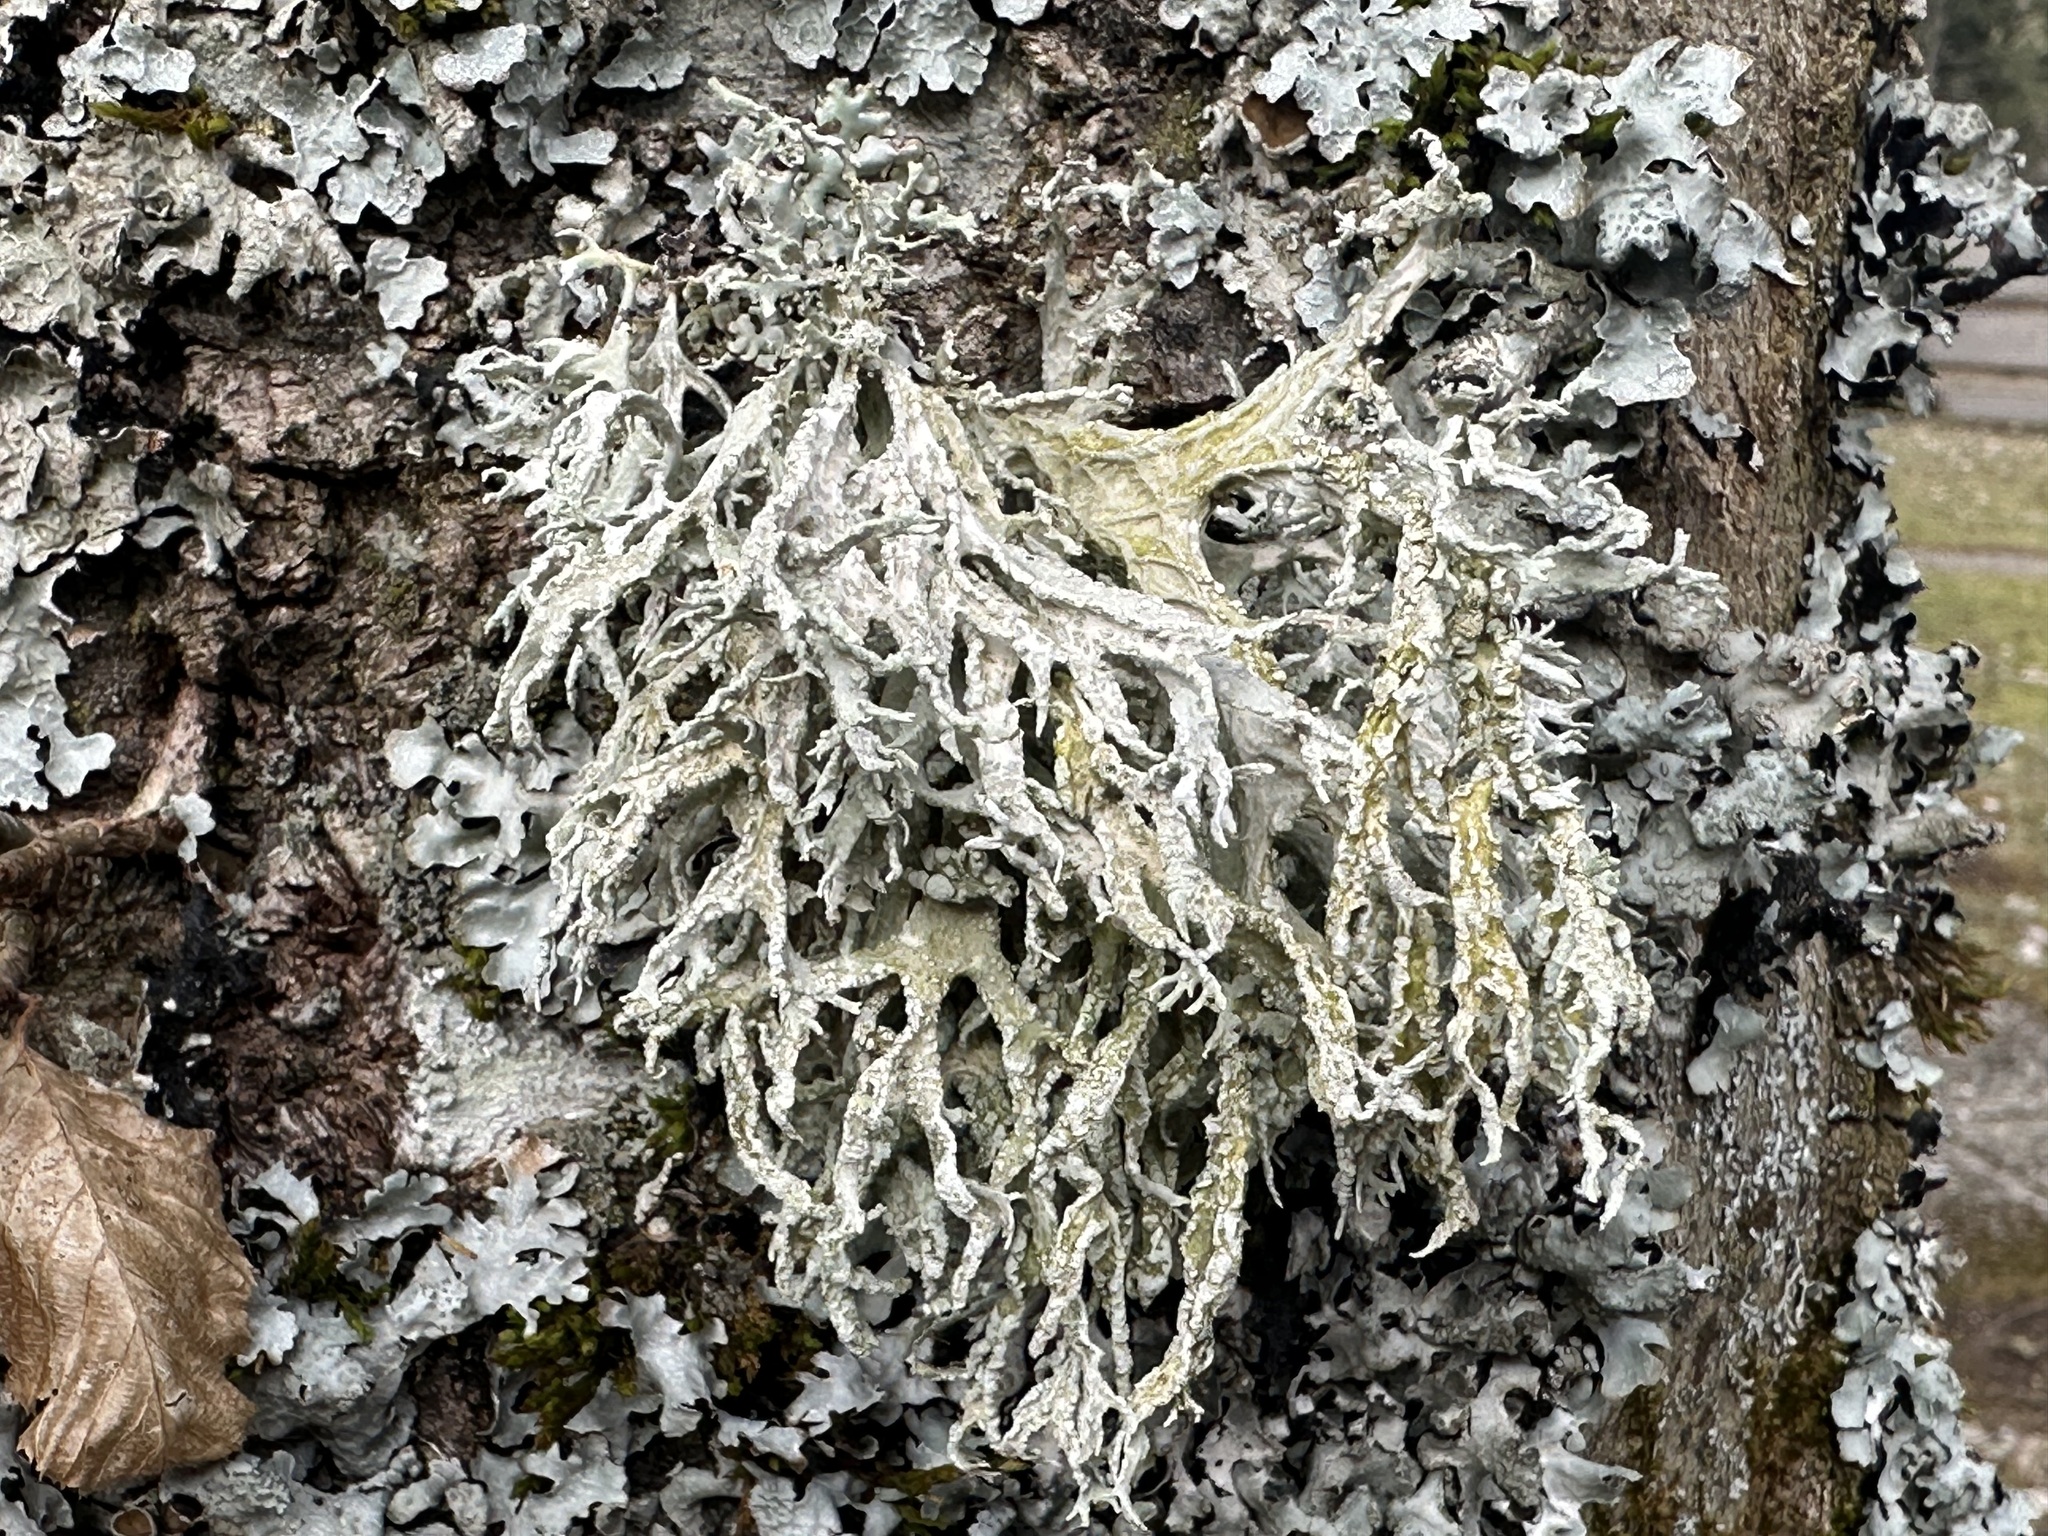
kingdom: Fungi
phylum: Ascomycota
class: Lecanoromycetes
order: Lecanorales
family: Parmeliaceae
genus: Evernia
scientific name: Evernia prunastri
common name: Oak moss
